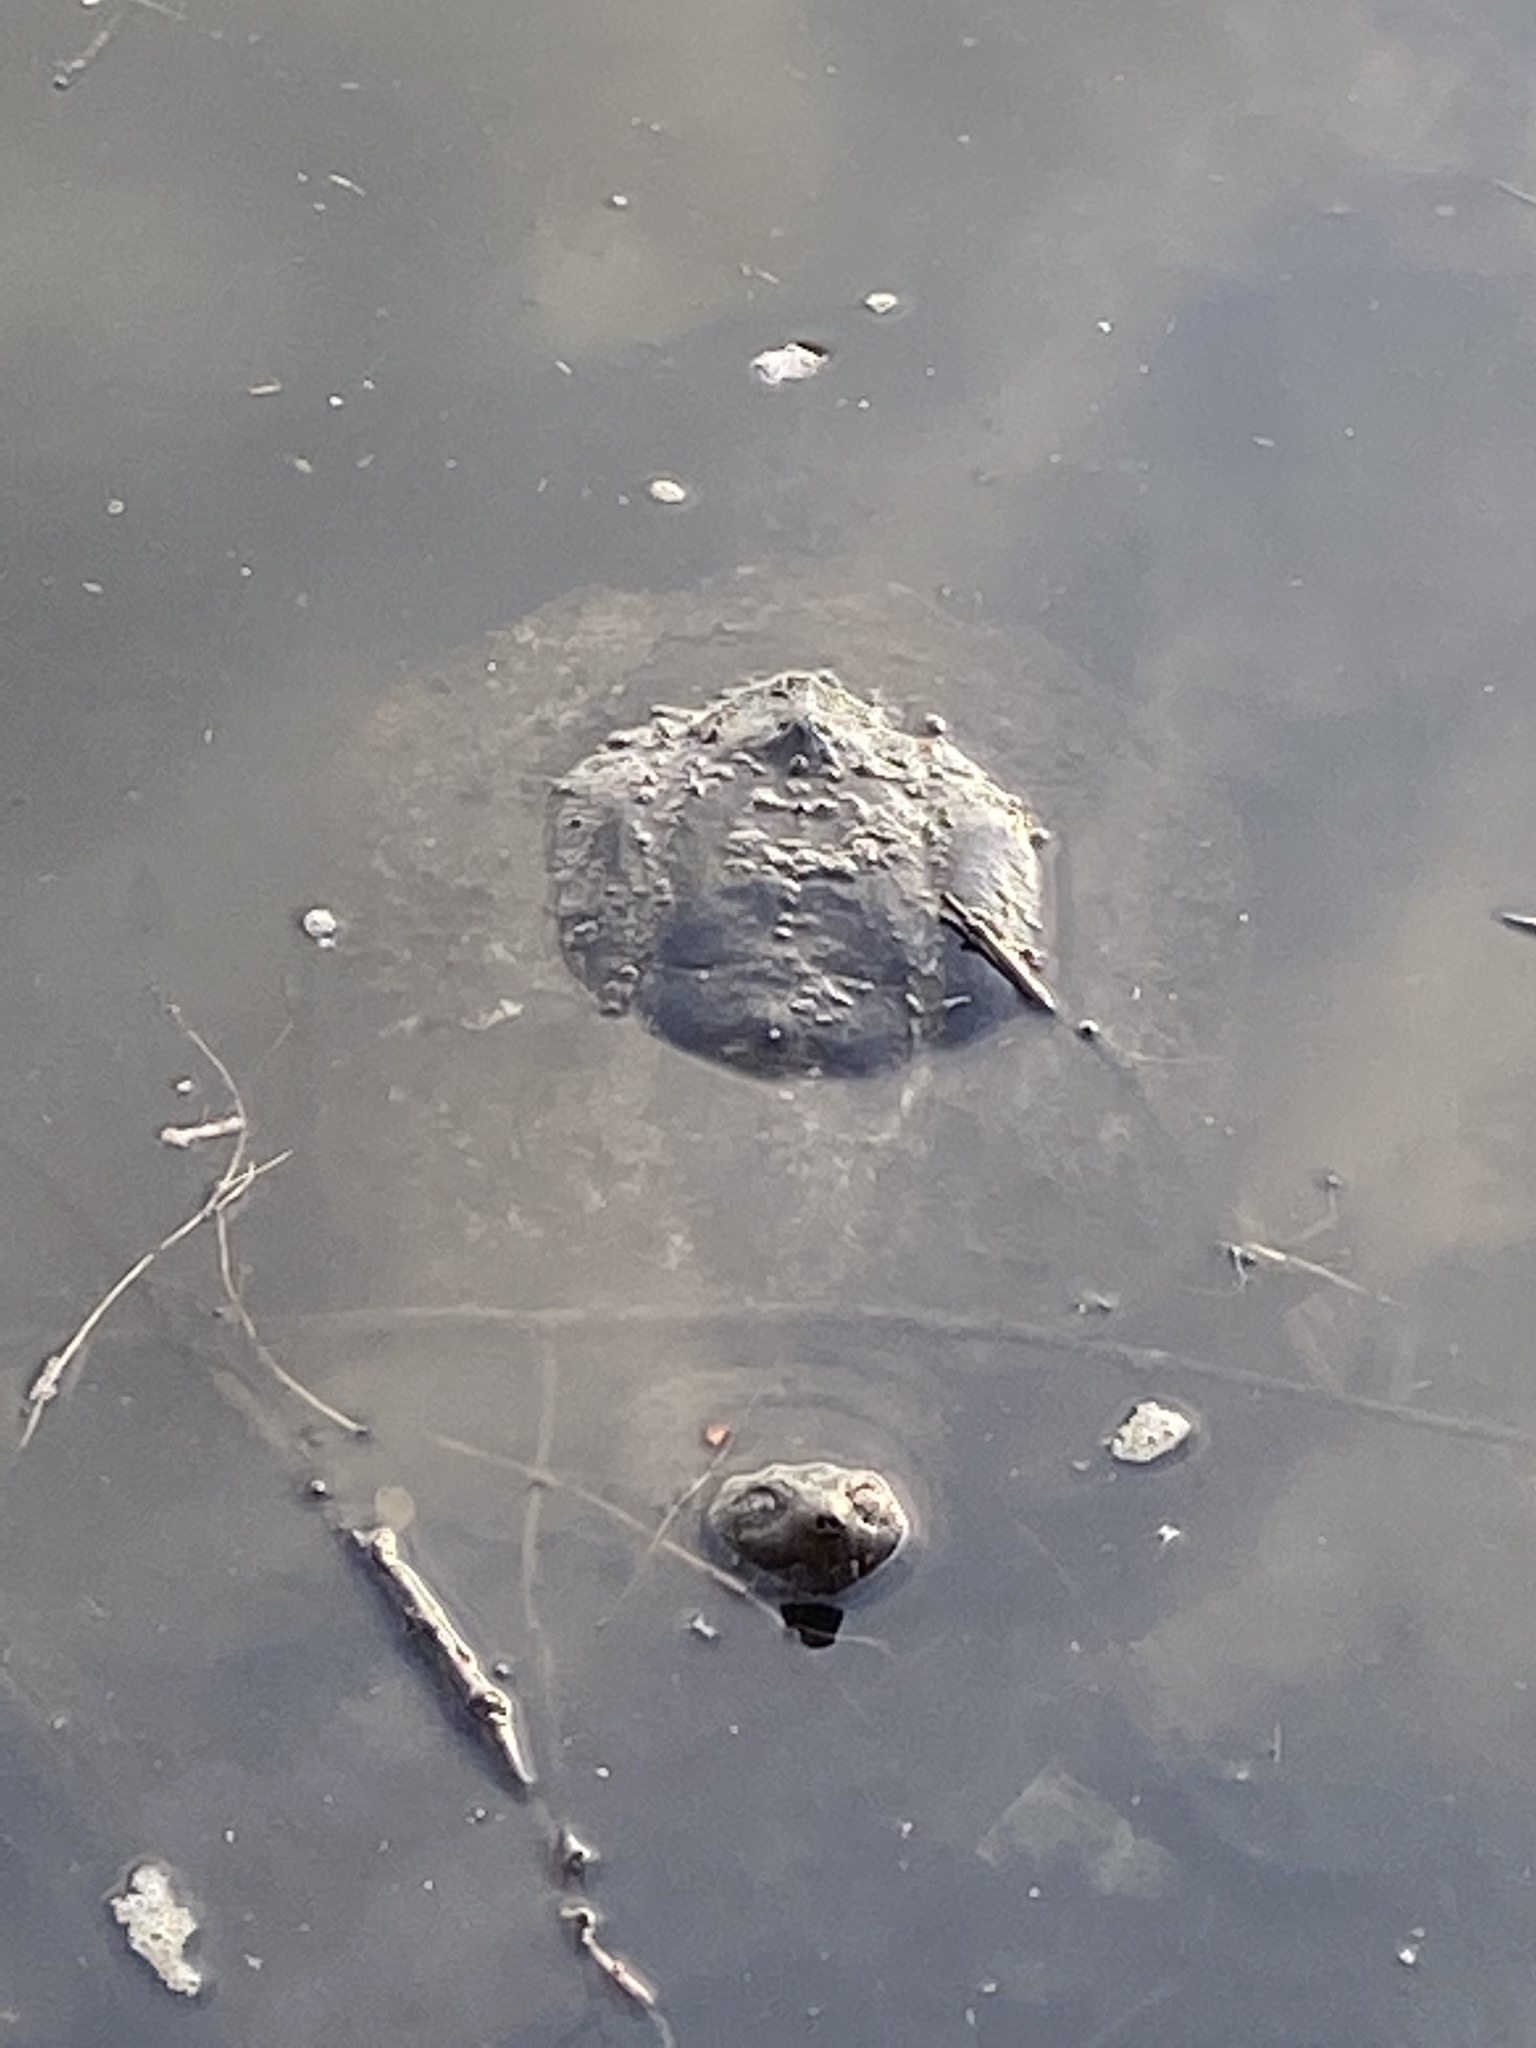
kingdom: Animalia
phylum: Chordata
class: Testudines
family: Chelydridae
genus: Chelydra
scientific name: Chelydra serpentina
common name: Common snapping turtle
